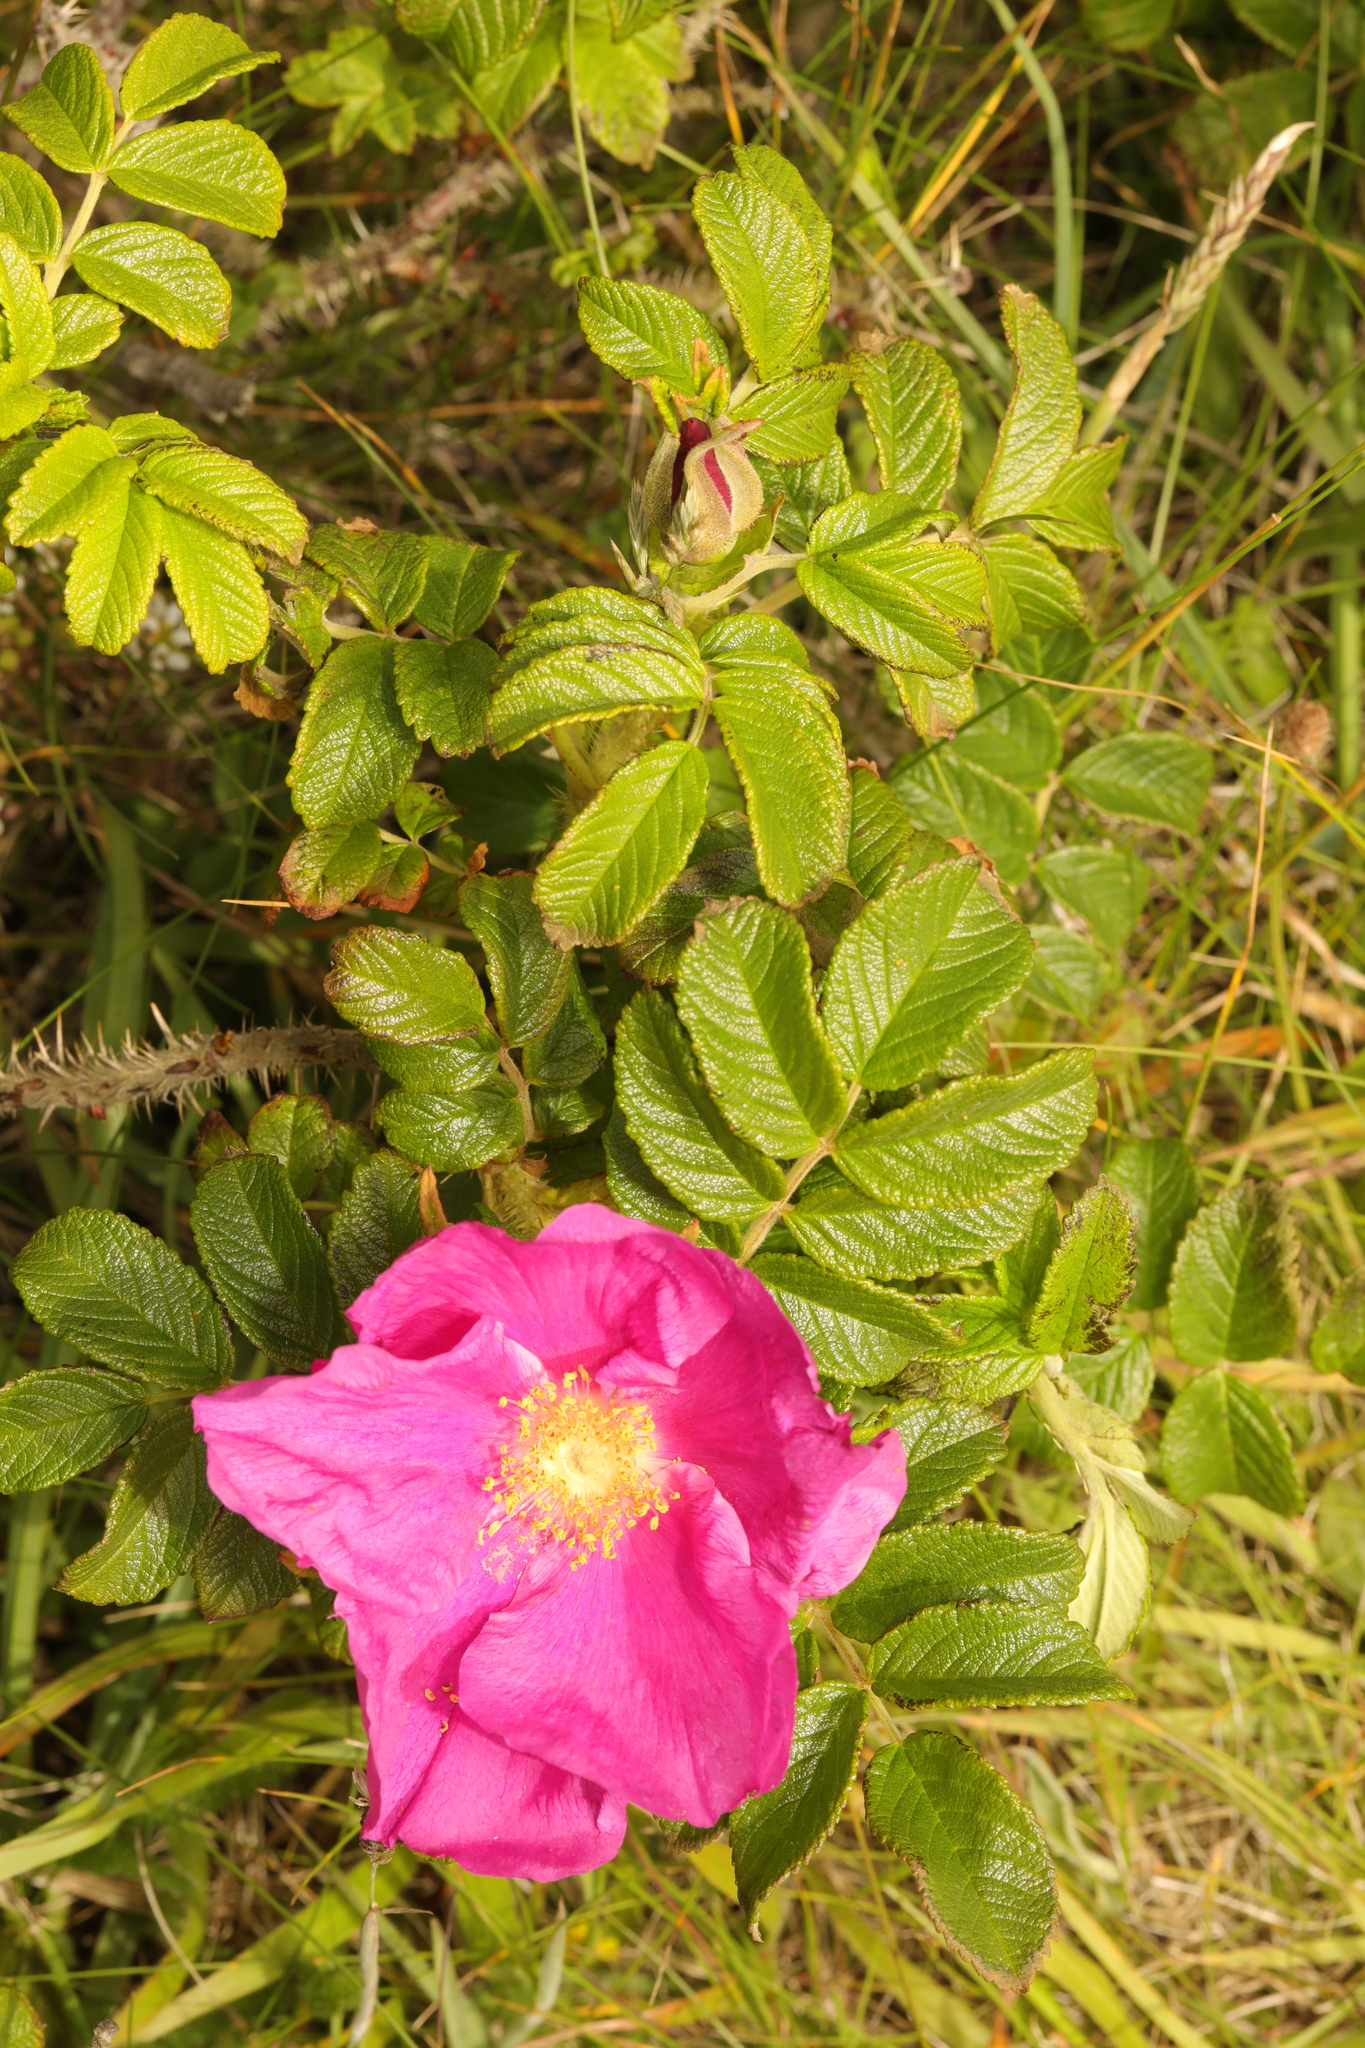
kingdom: Plantae
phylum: Tracheophyta
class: Magnoliopsida
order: Rosales
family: Rosaceae
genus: Rosa
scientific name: Rosa rugosa
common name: Japanese rose
